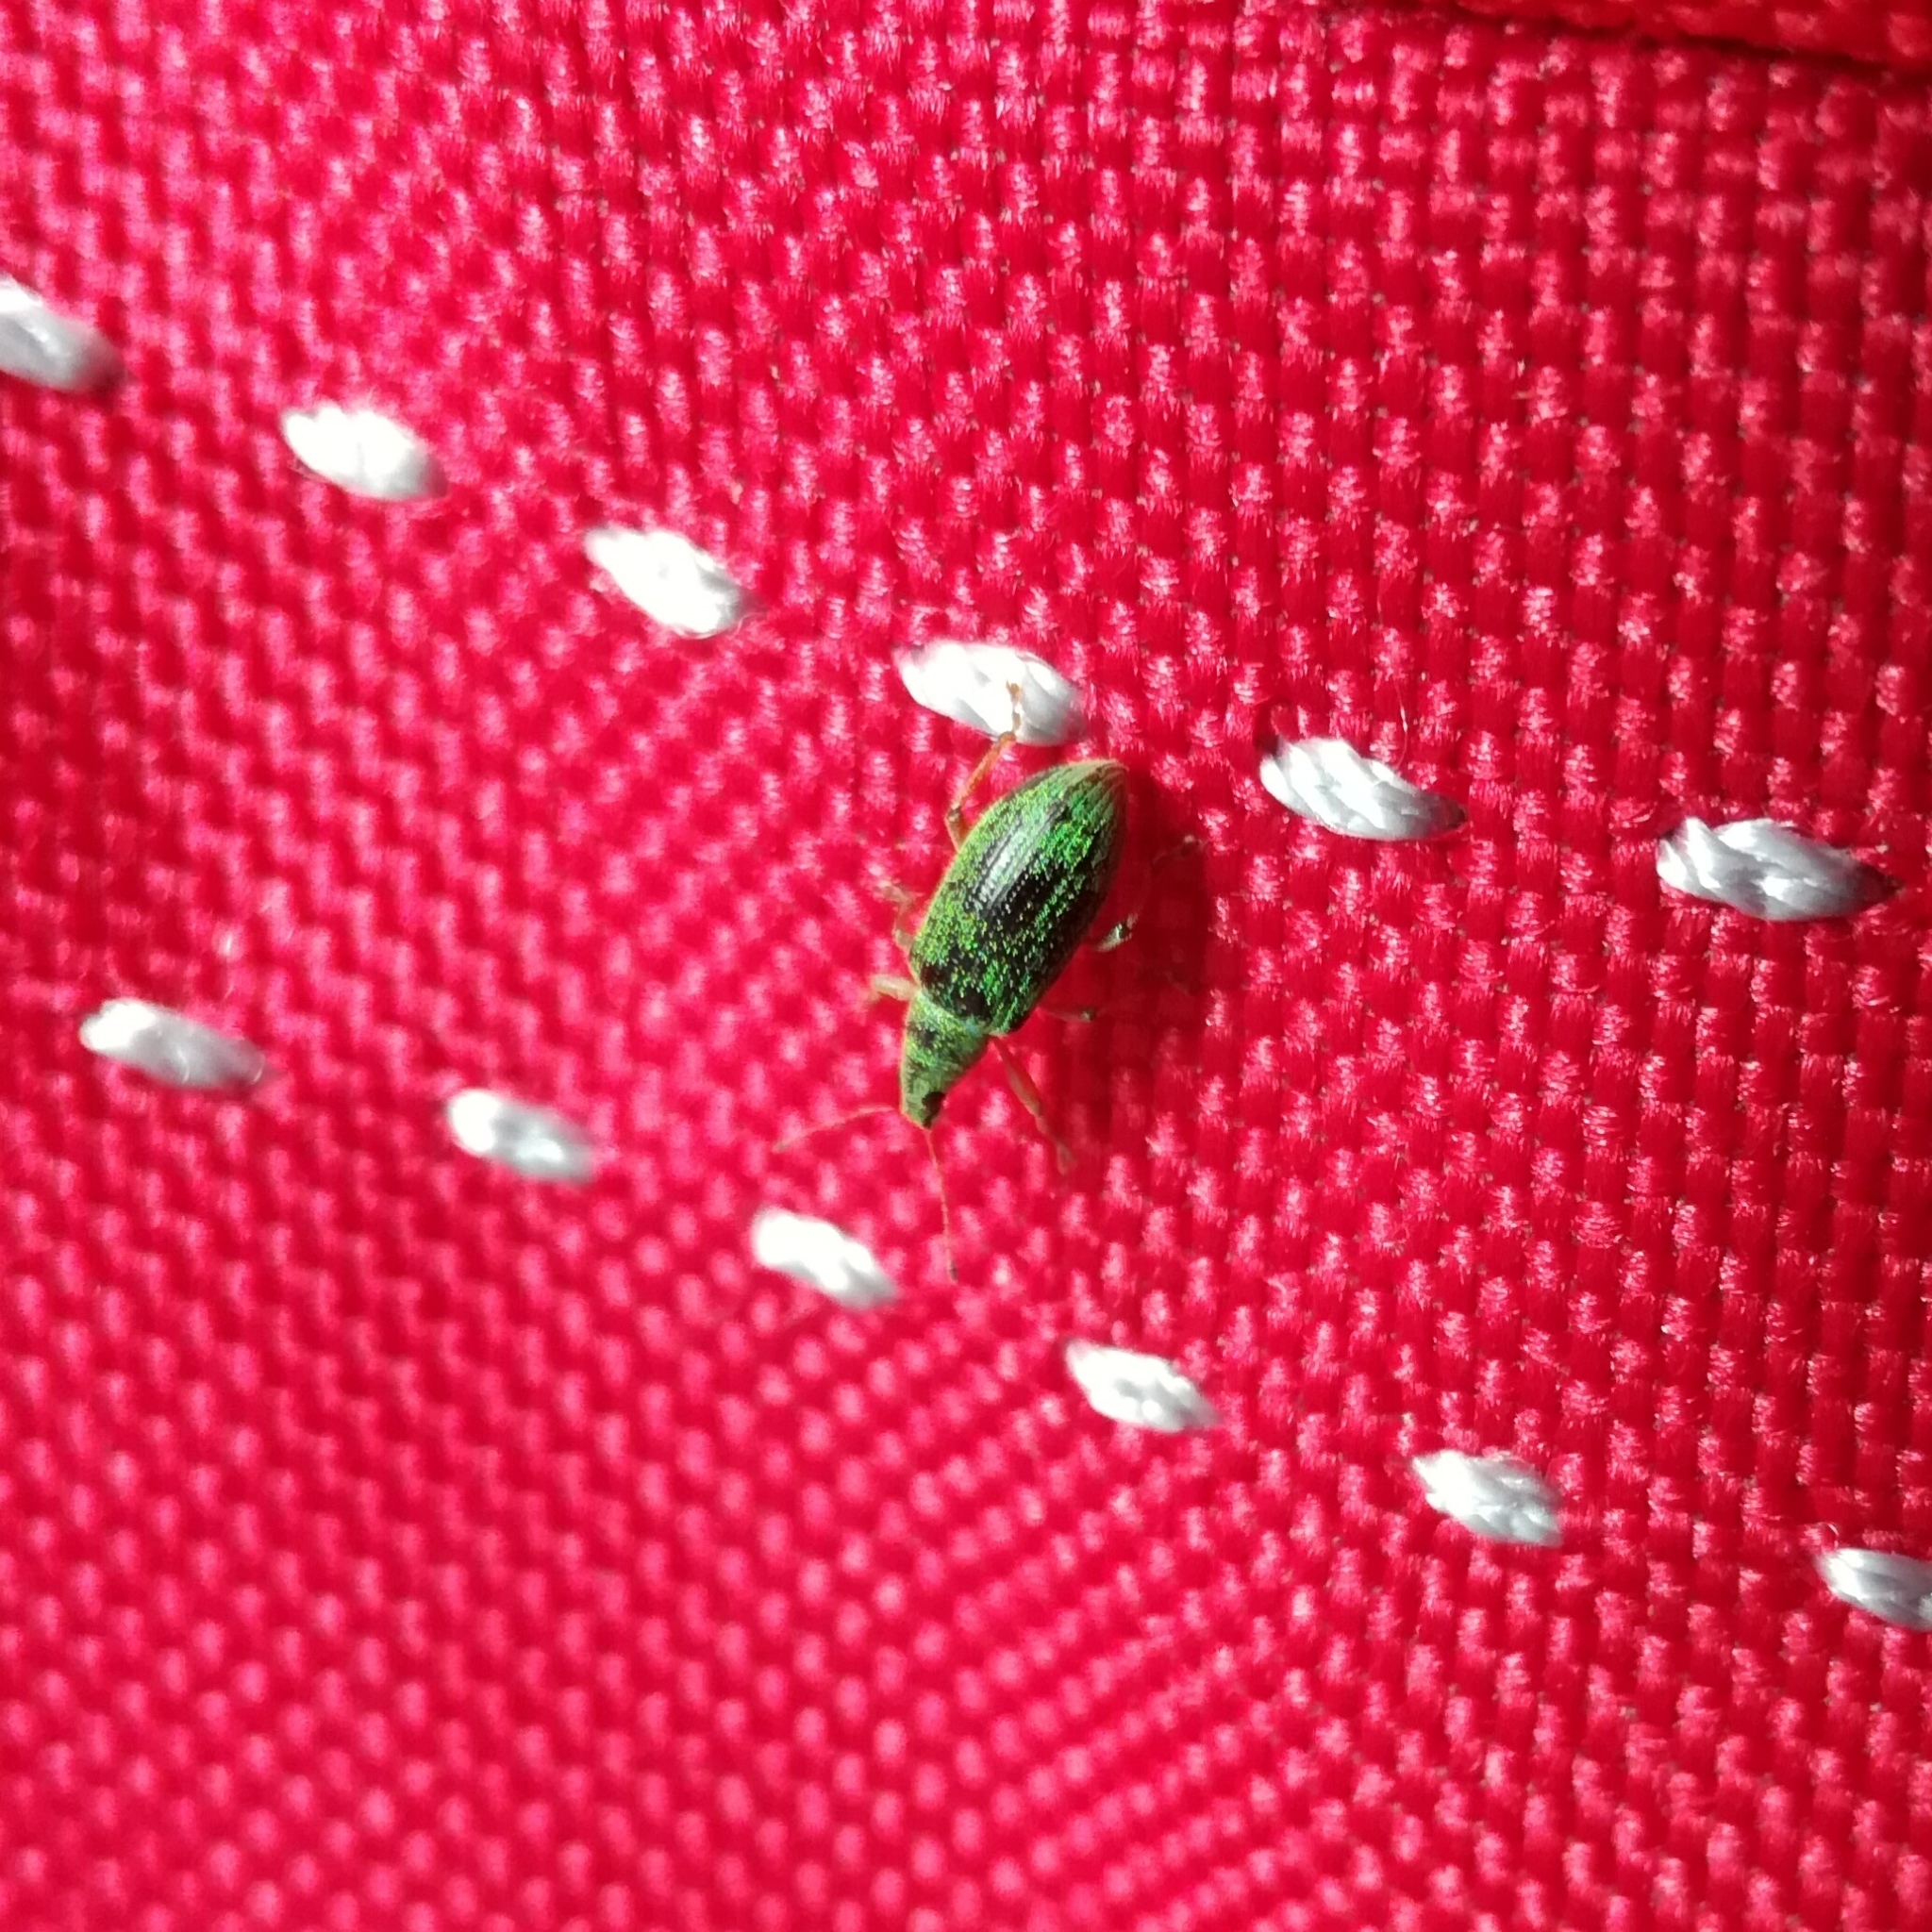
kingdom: Animalia
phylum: Arthropoda
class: Insecta
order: Coleoptera
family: Curculionidae
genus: Polydrusus
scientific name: Polydrusus formosus
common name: Weevil
